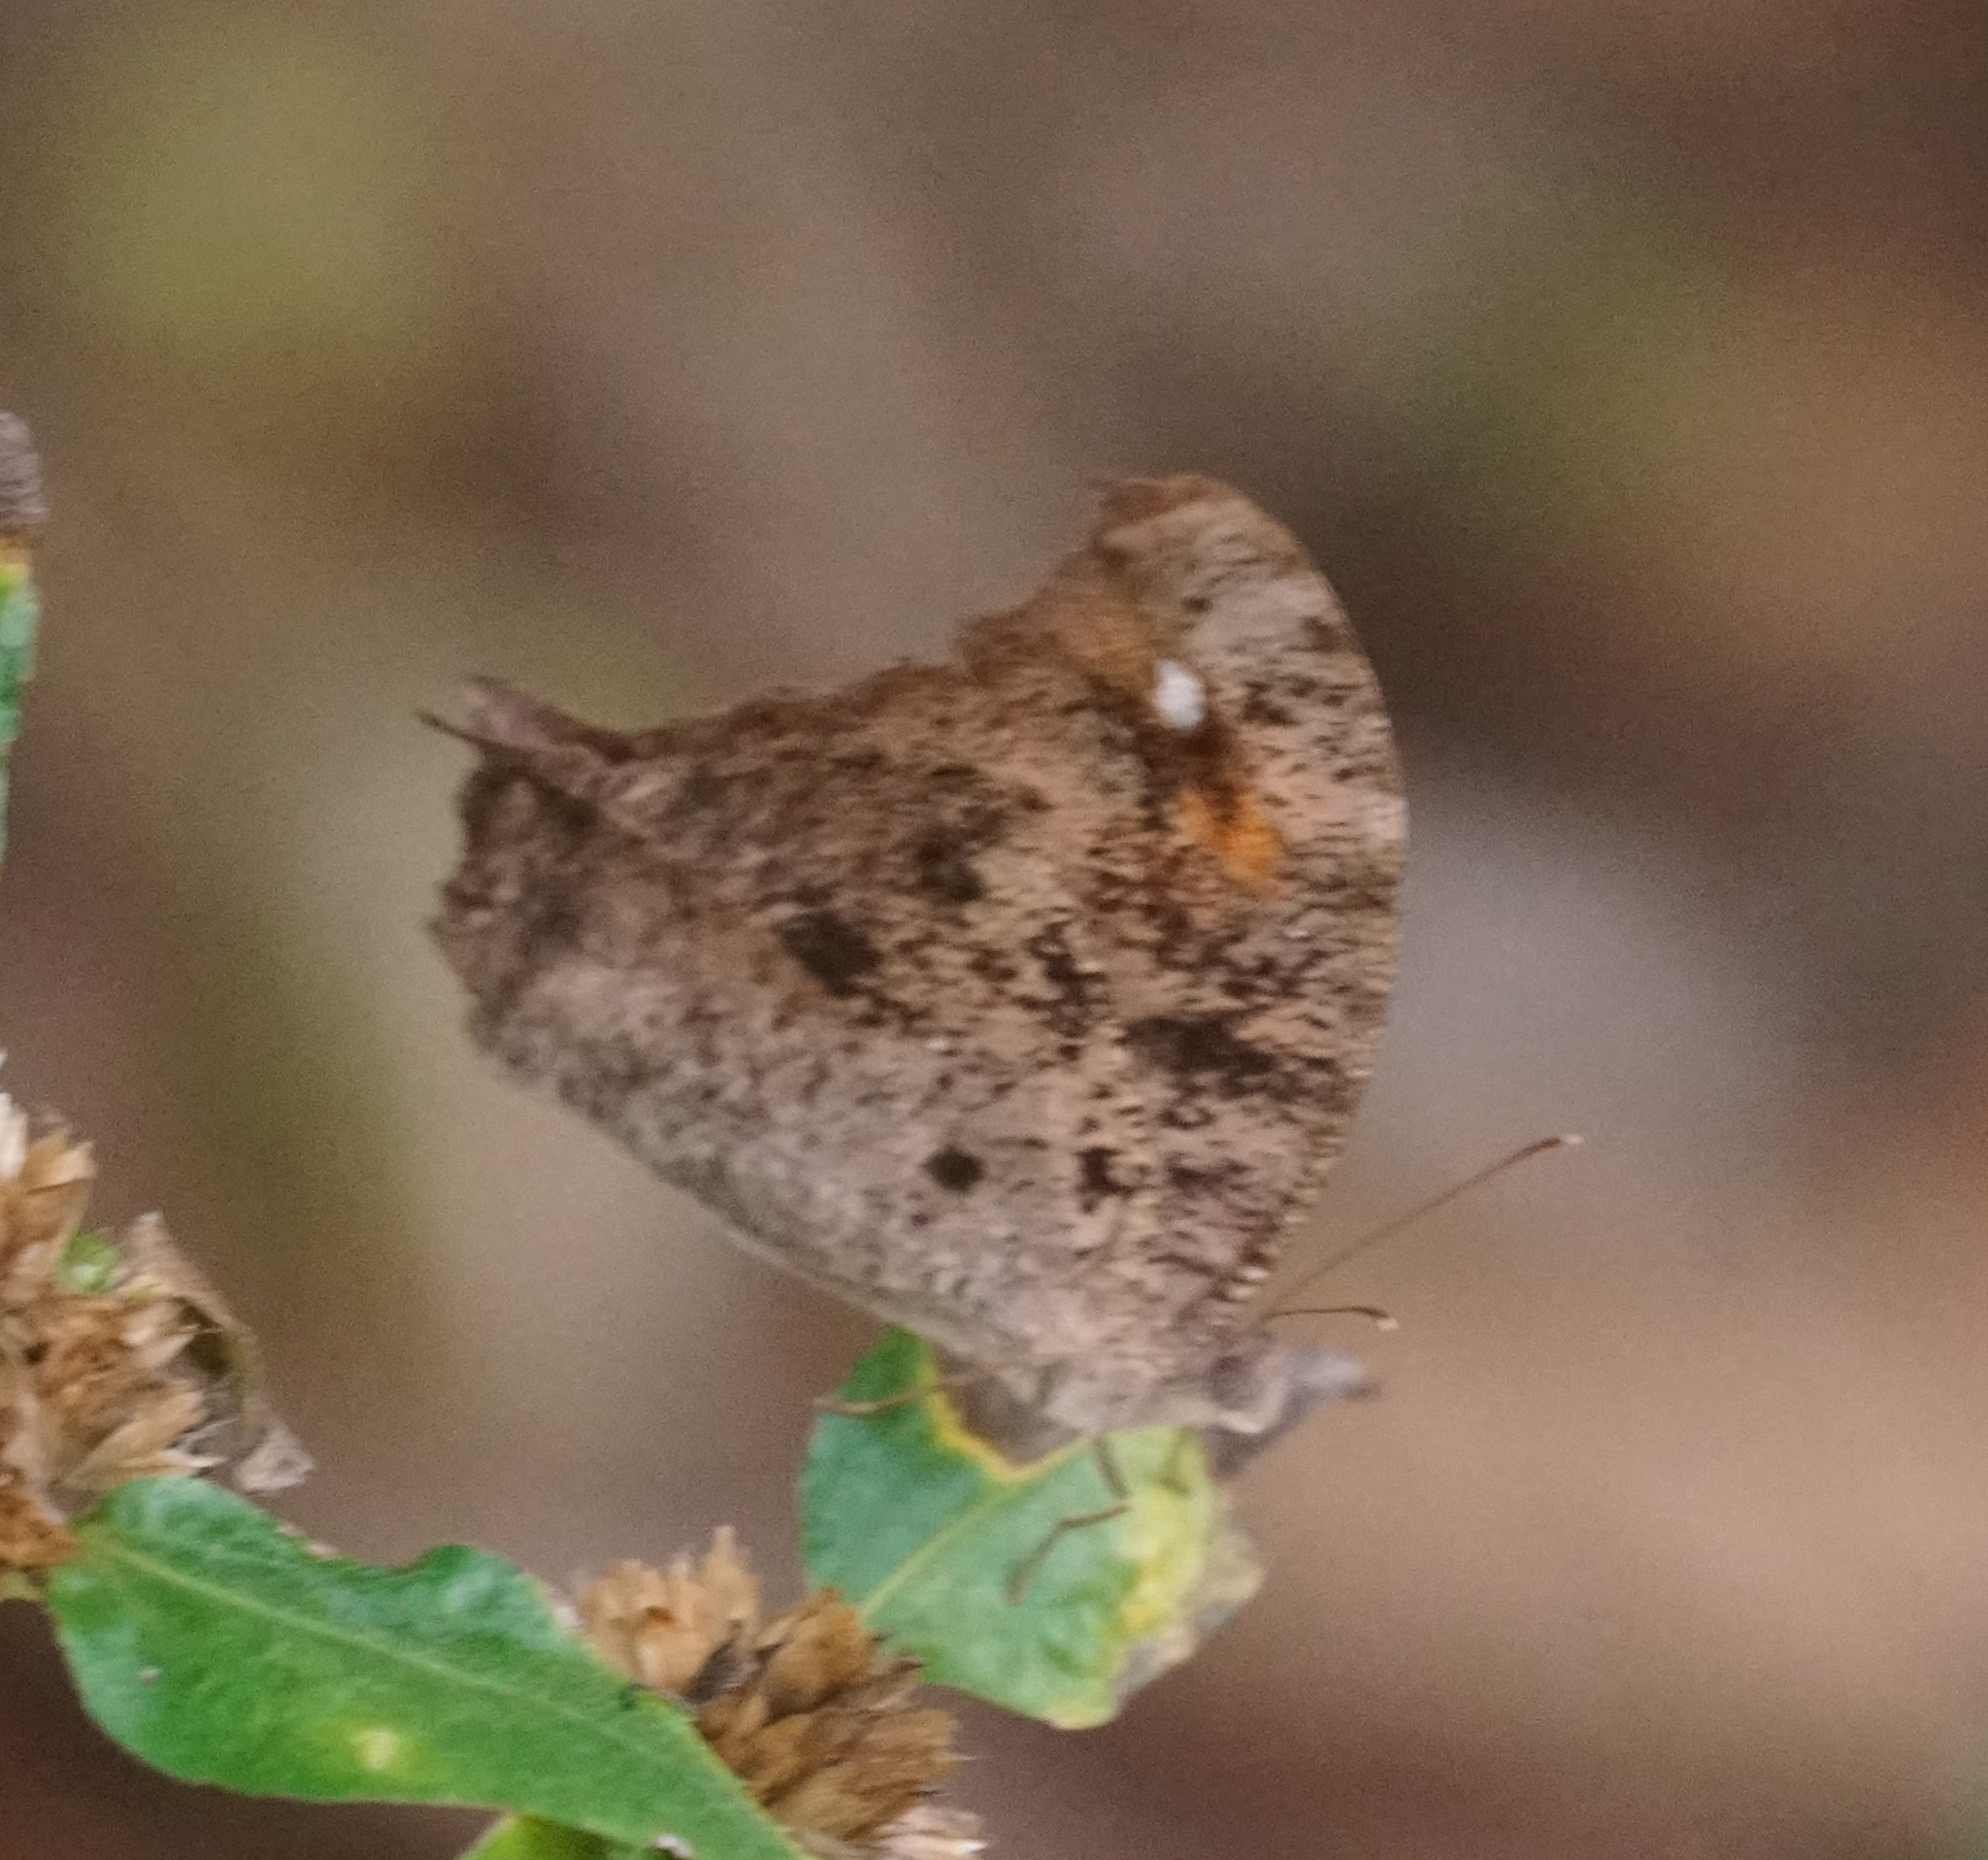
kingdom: Animalia
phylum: Arthropoda
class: Insecta
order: Lepidoptera
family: Nymphalidae
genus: Melanitis
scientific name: Melanitis leda
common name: Twilight brown
